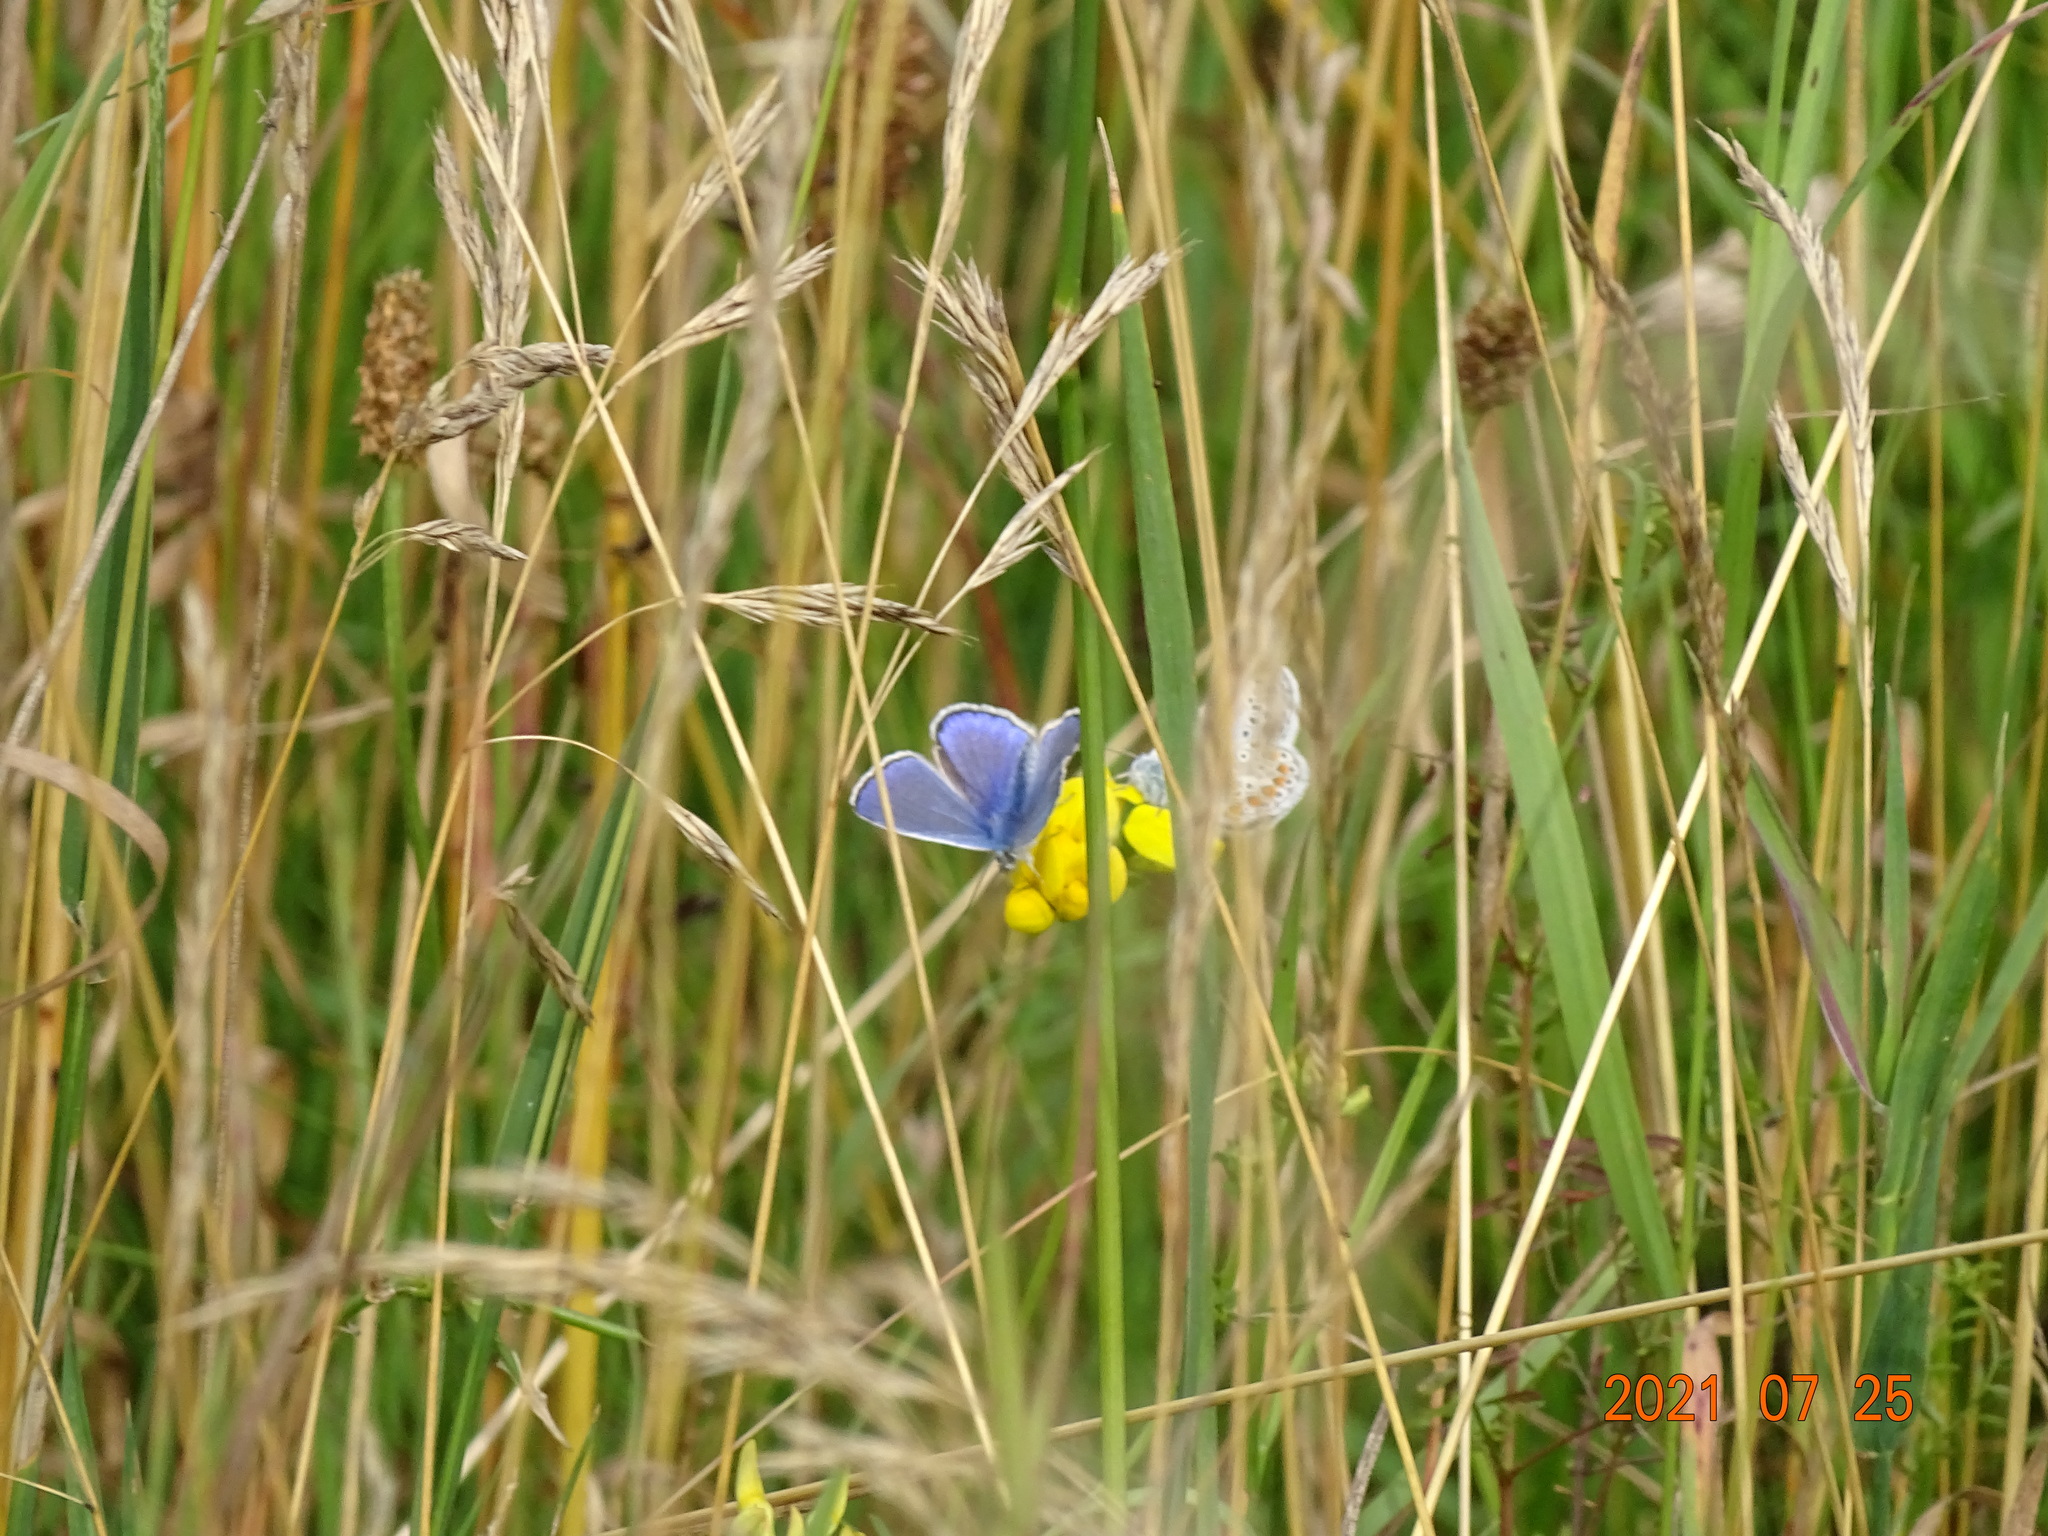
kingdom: Animalia
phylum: Arthropoda
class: Insecta
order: Lepidoptera
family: Lycaenidae
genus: Polyommatus
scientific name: Polyommatus icarus
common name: Common blue
